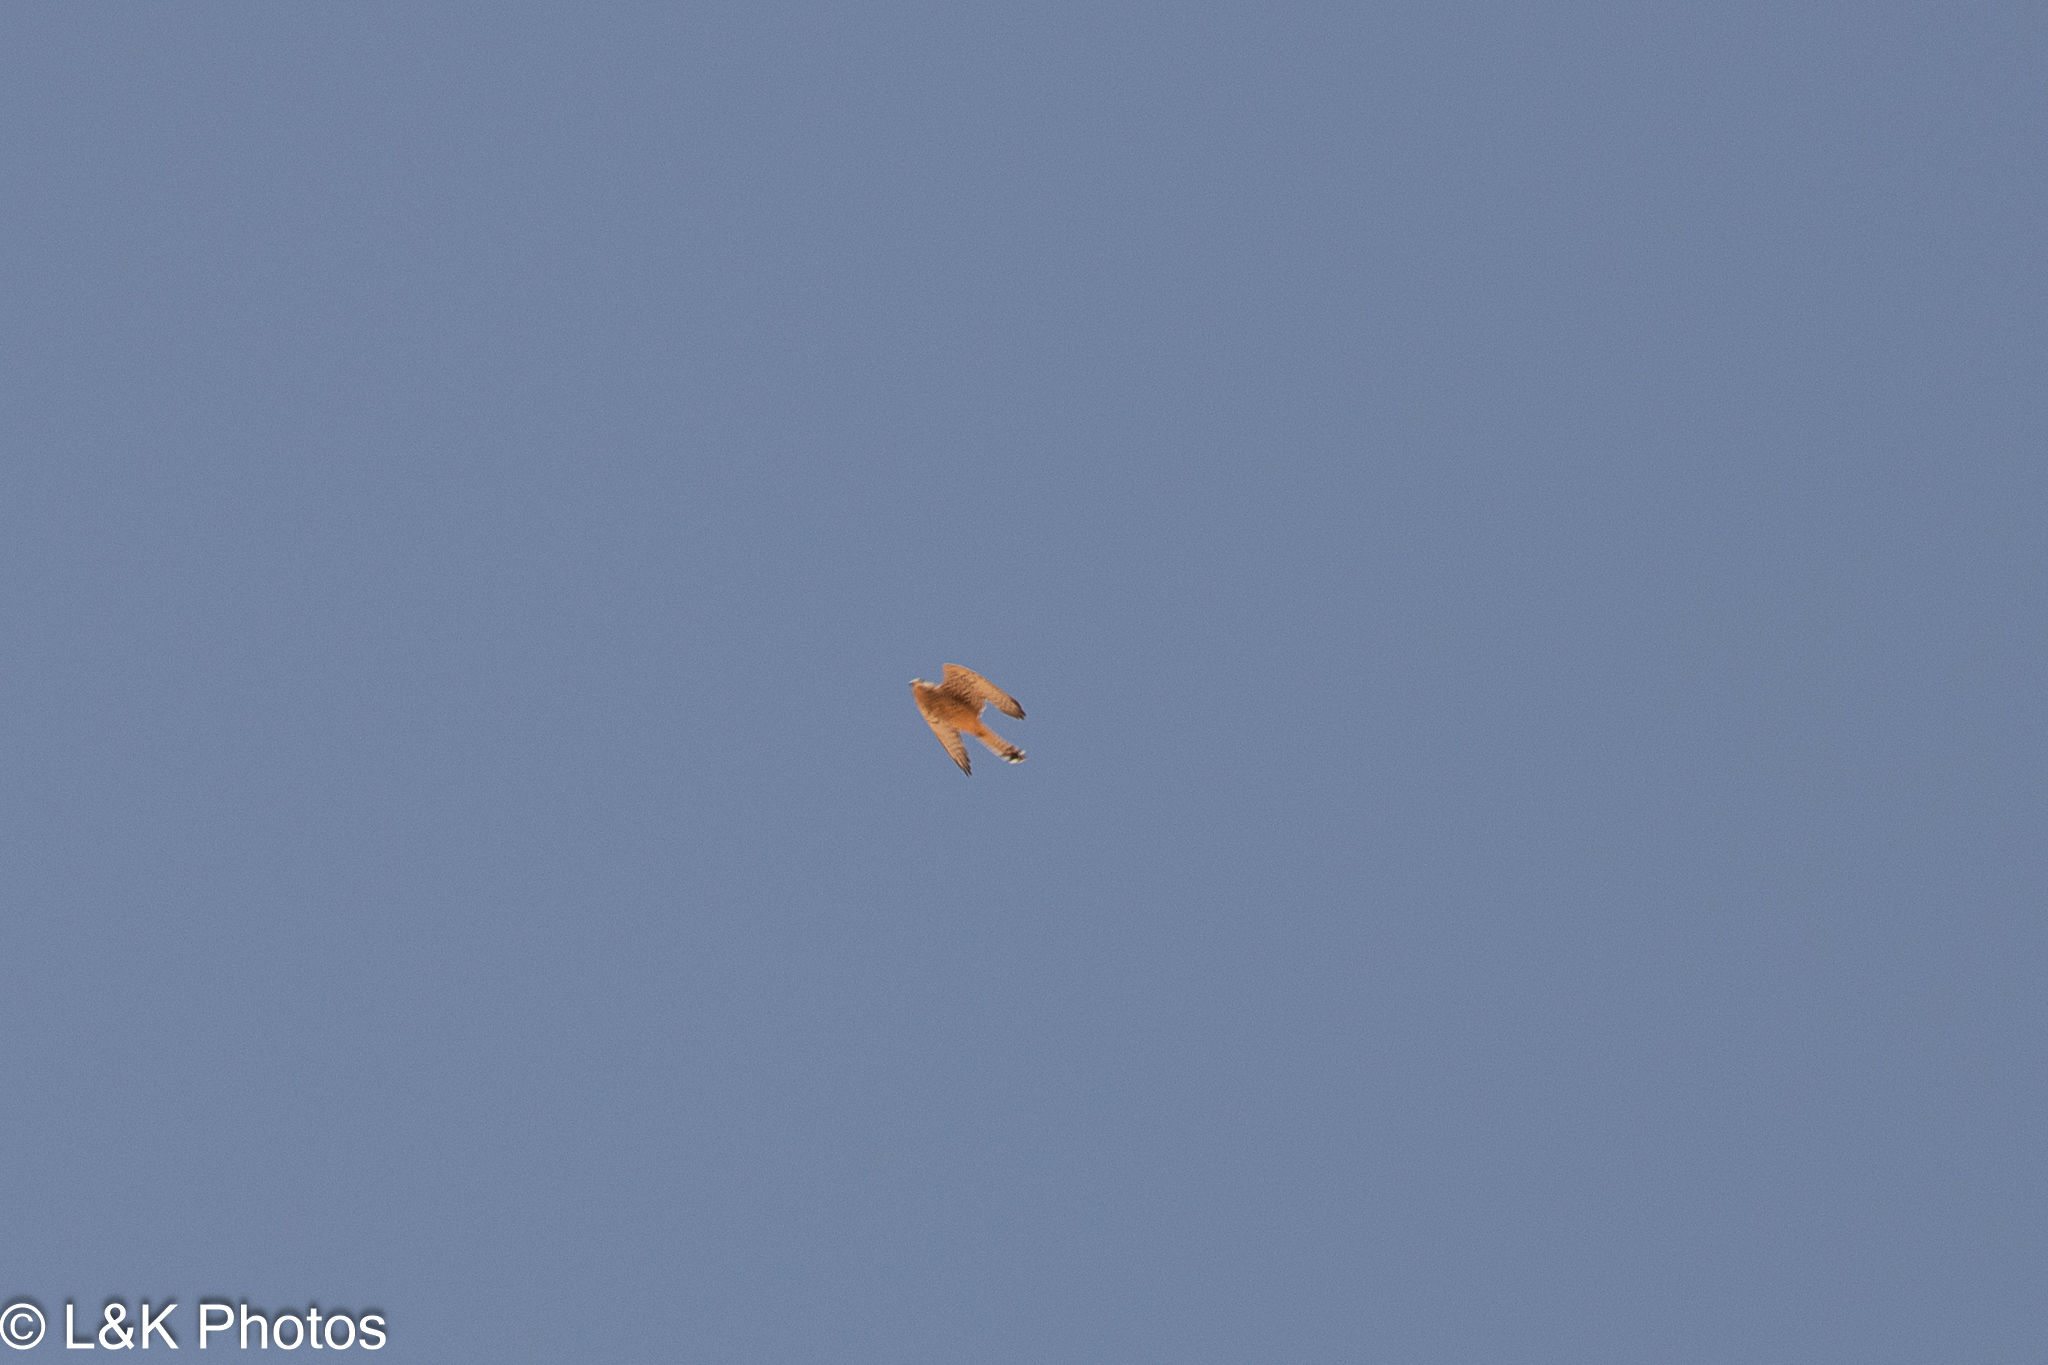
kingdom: Animalia
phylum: Chordata
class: Aves
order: Falconiformes
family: Falconidae
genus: Falco
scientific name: Falco tinnunculus
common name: Common kestrel
